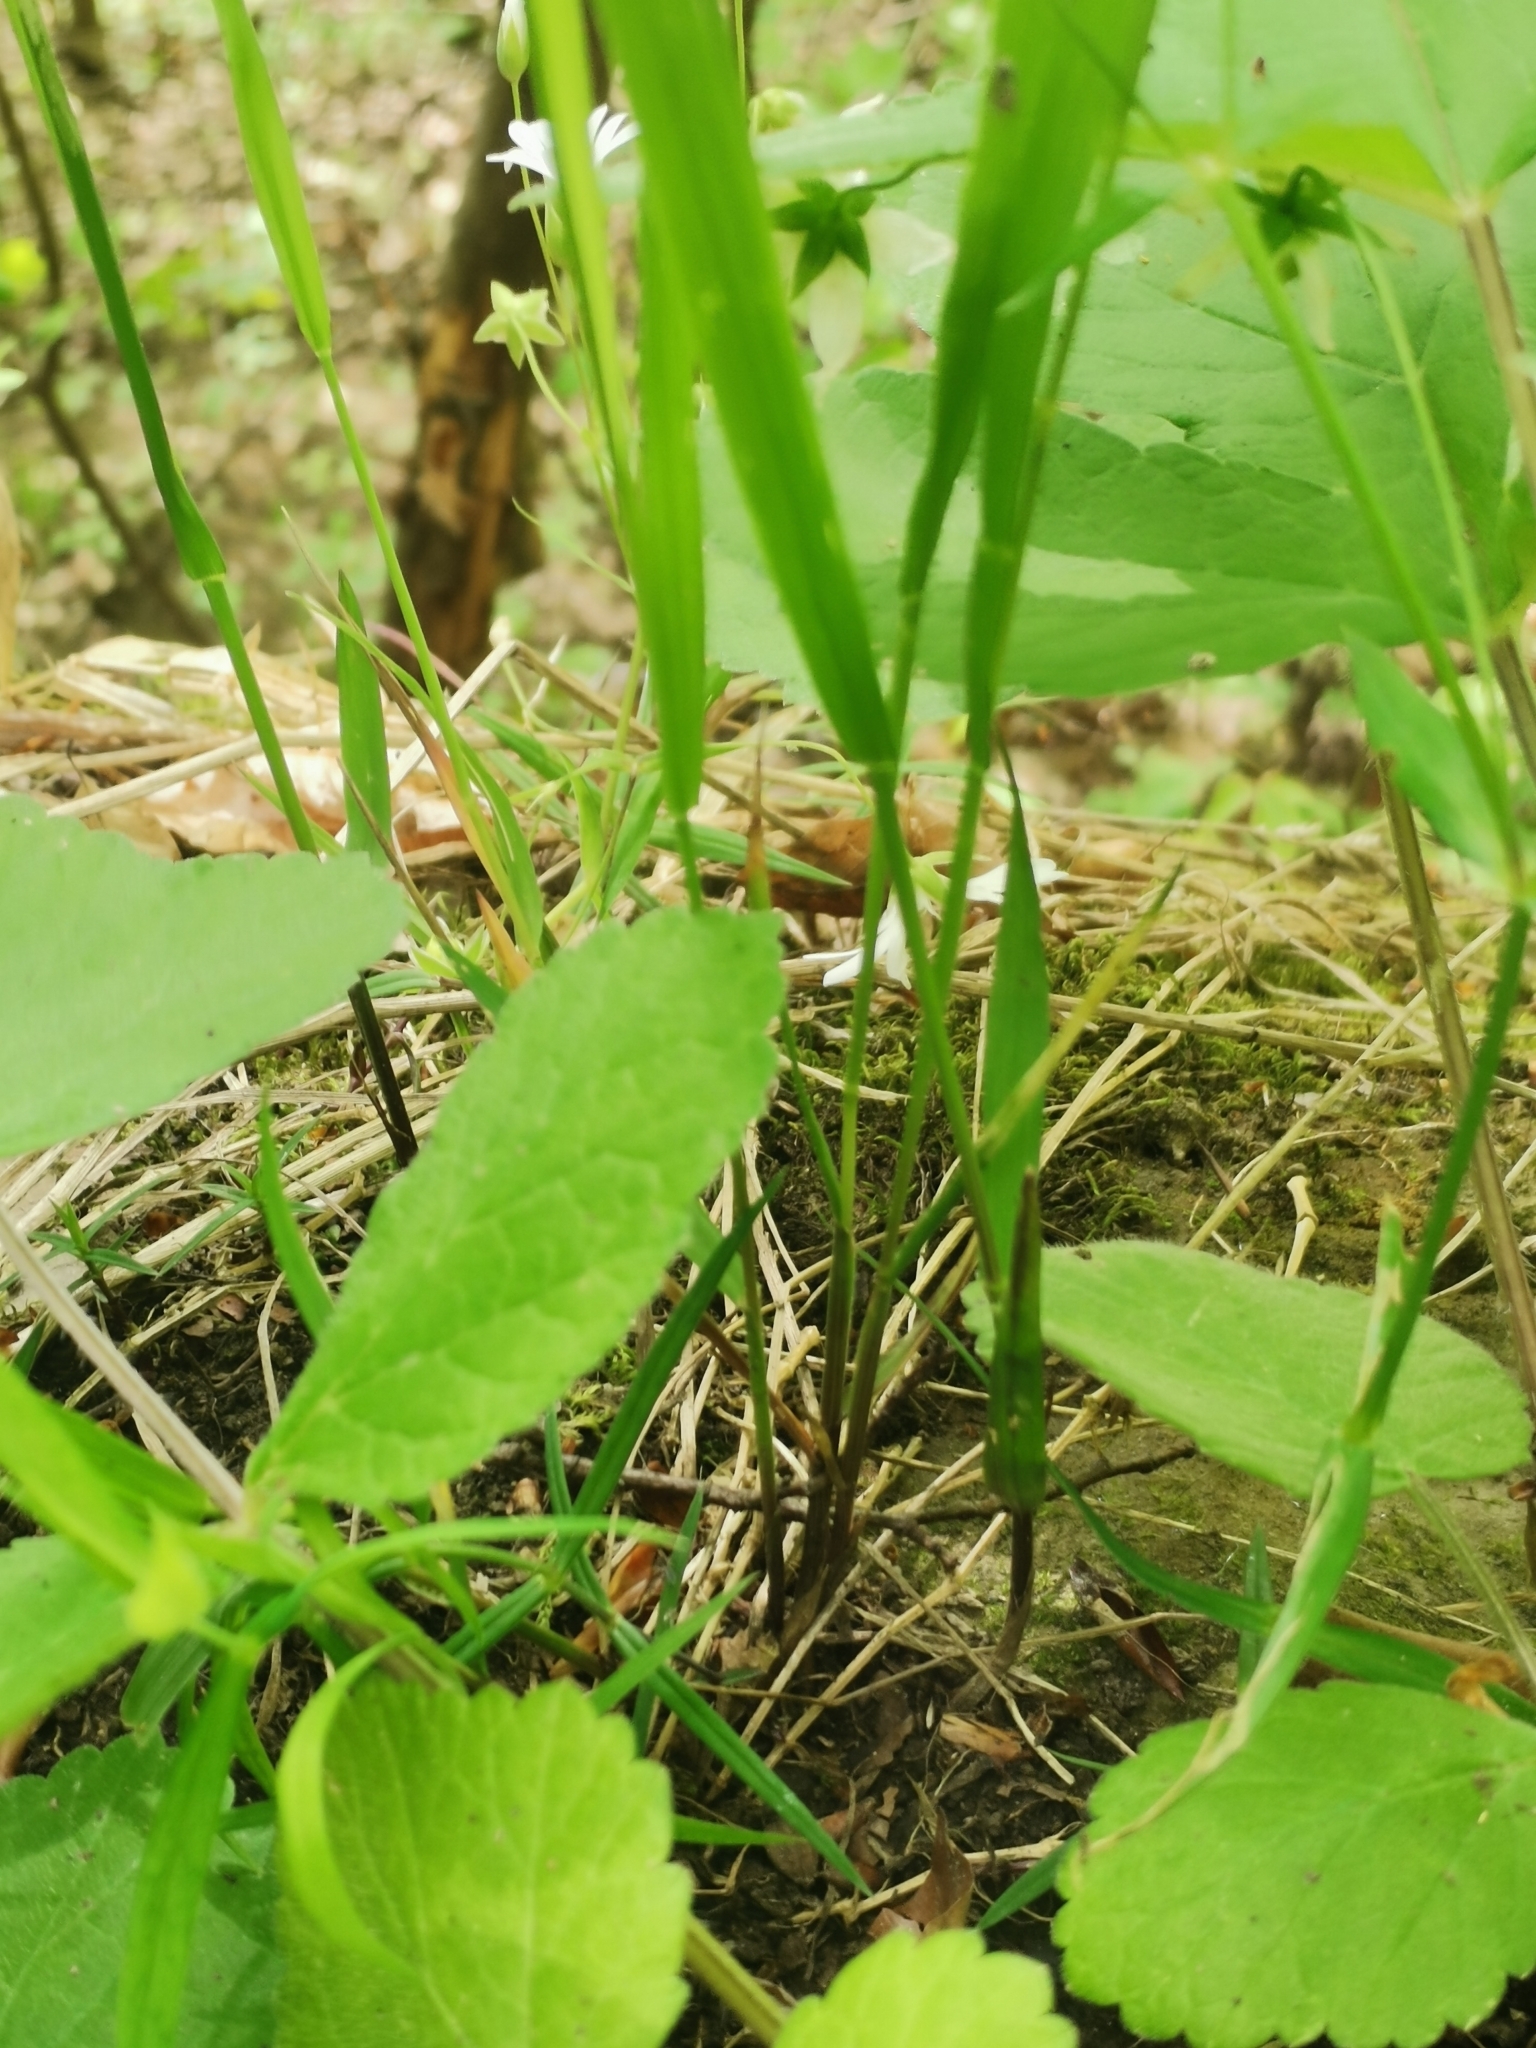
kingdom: Plantae
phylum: Tracheophyta
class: Liliopsida
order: Poales
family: Poaceae
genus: Melica
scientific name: Melica nutans
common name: Mountain melick
